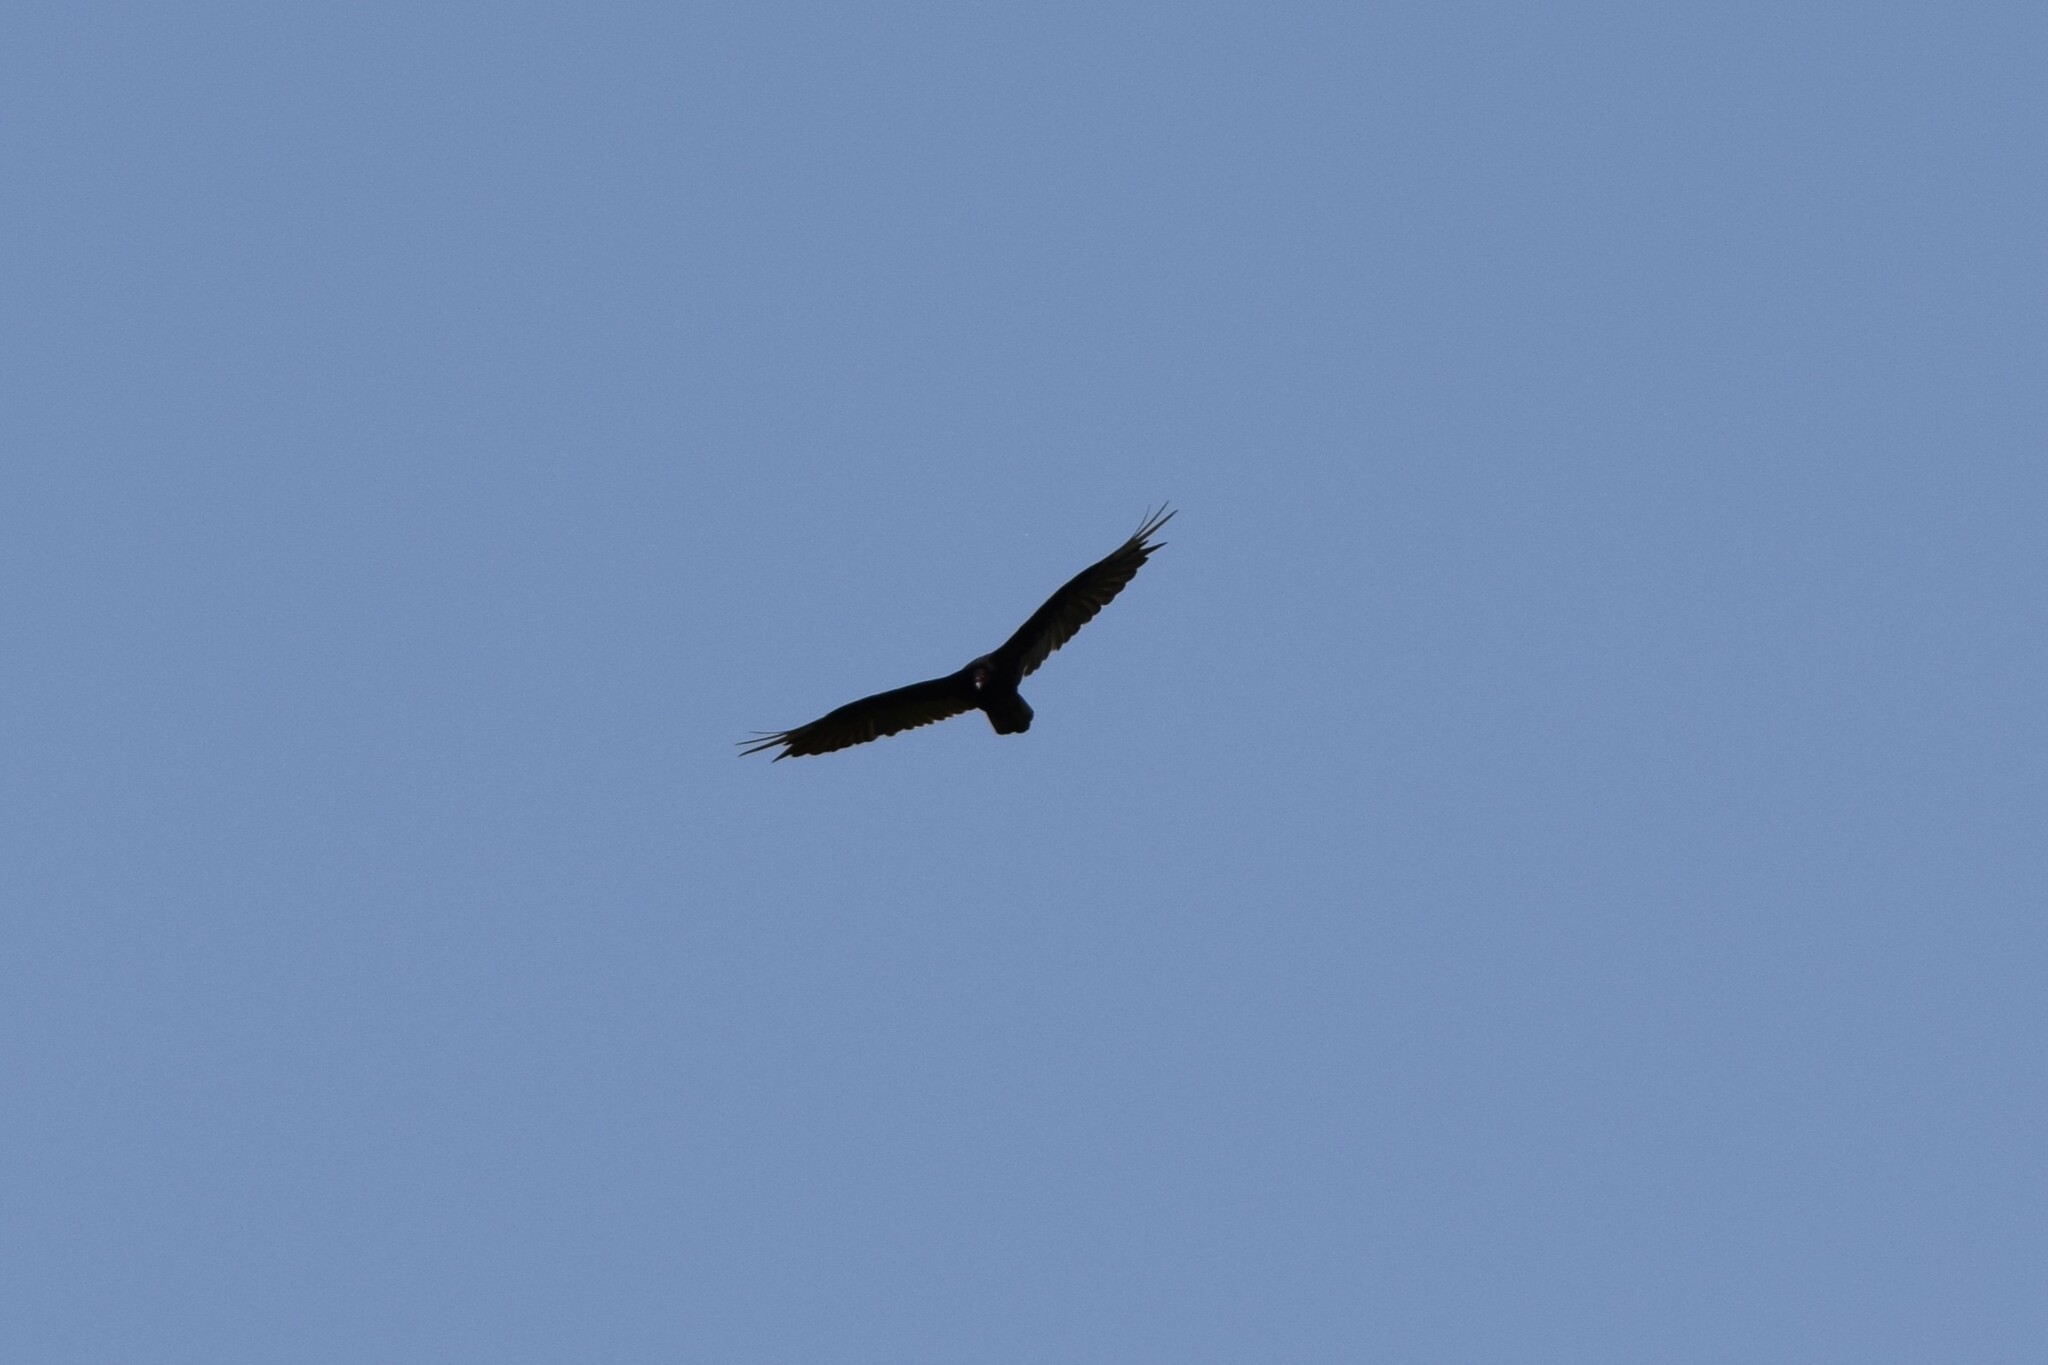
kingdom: Animalia
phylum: Chordata
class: Aves
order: Accipitriformes
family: Cathartidae
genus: Cathartes
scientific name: Cathartes aura
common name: Turkey vulture
